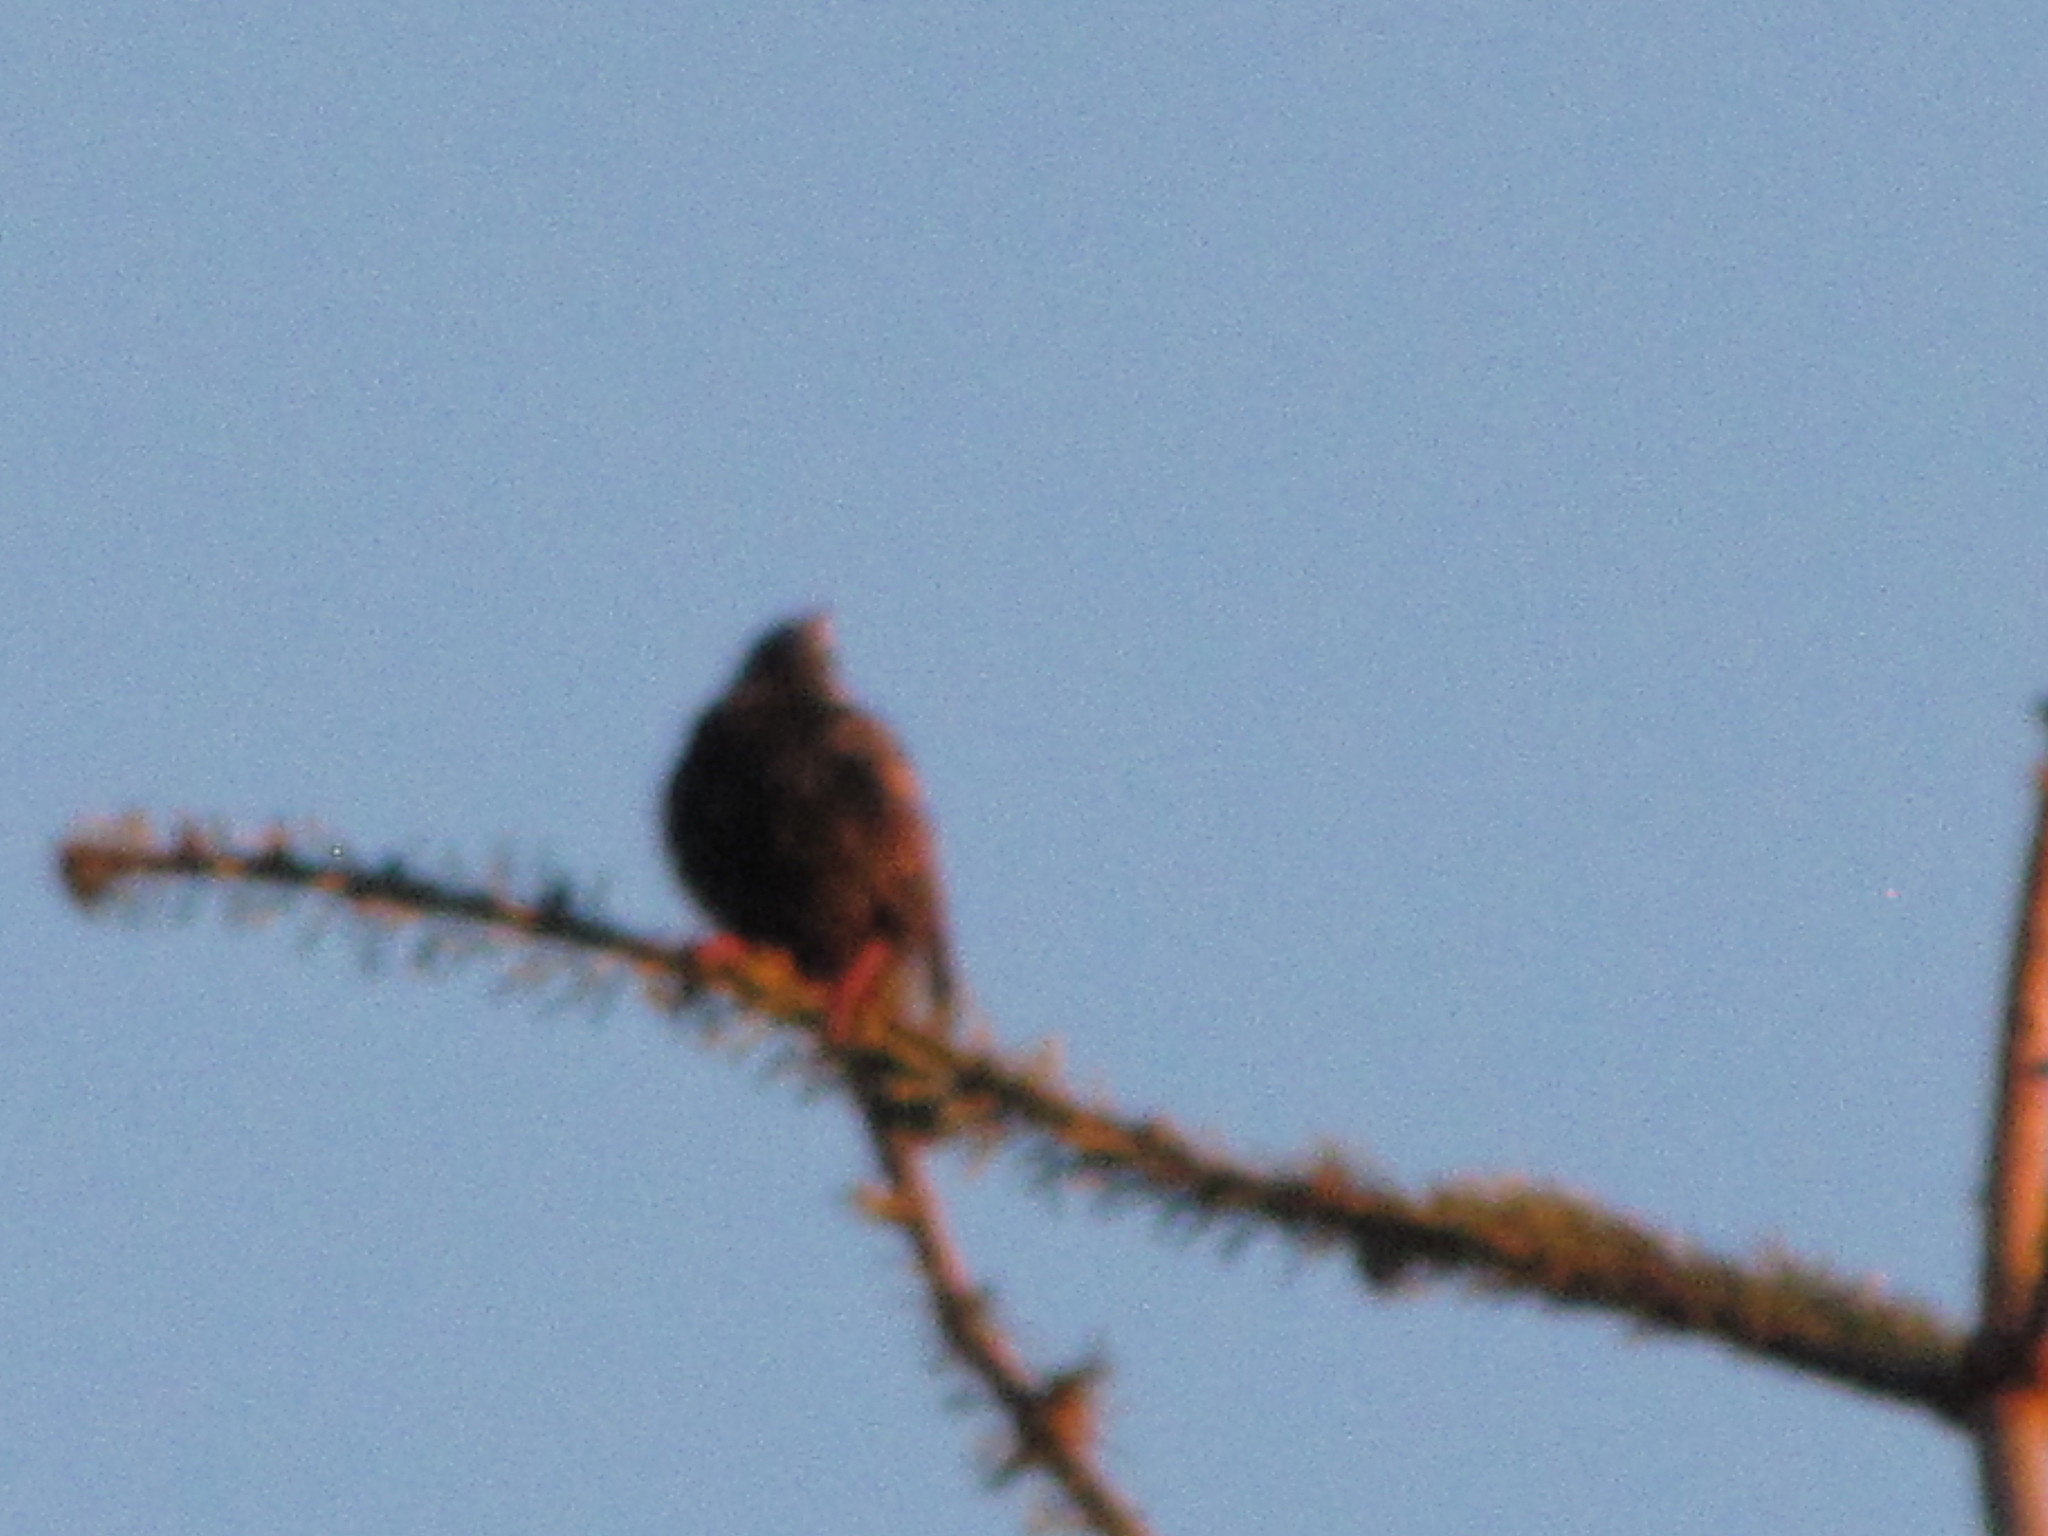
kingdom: Animalia
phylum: Chordata
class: Aves
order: Passeriformes
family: Sturnidae
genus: Sturnus
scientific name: Sturnus vulgaris
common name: Common starling
